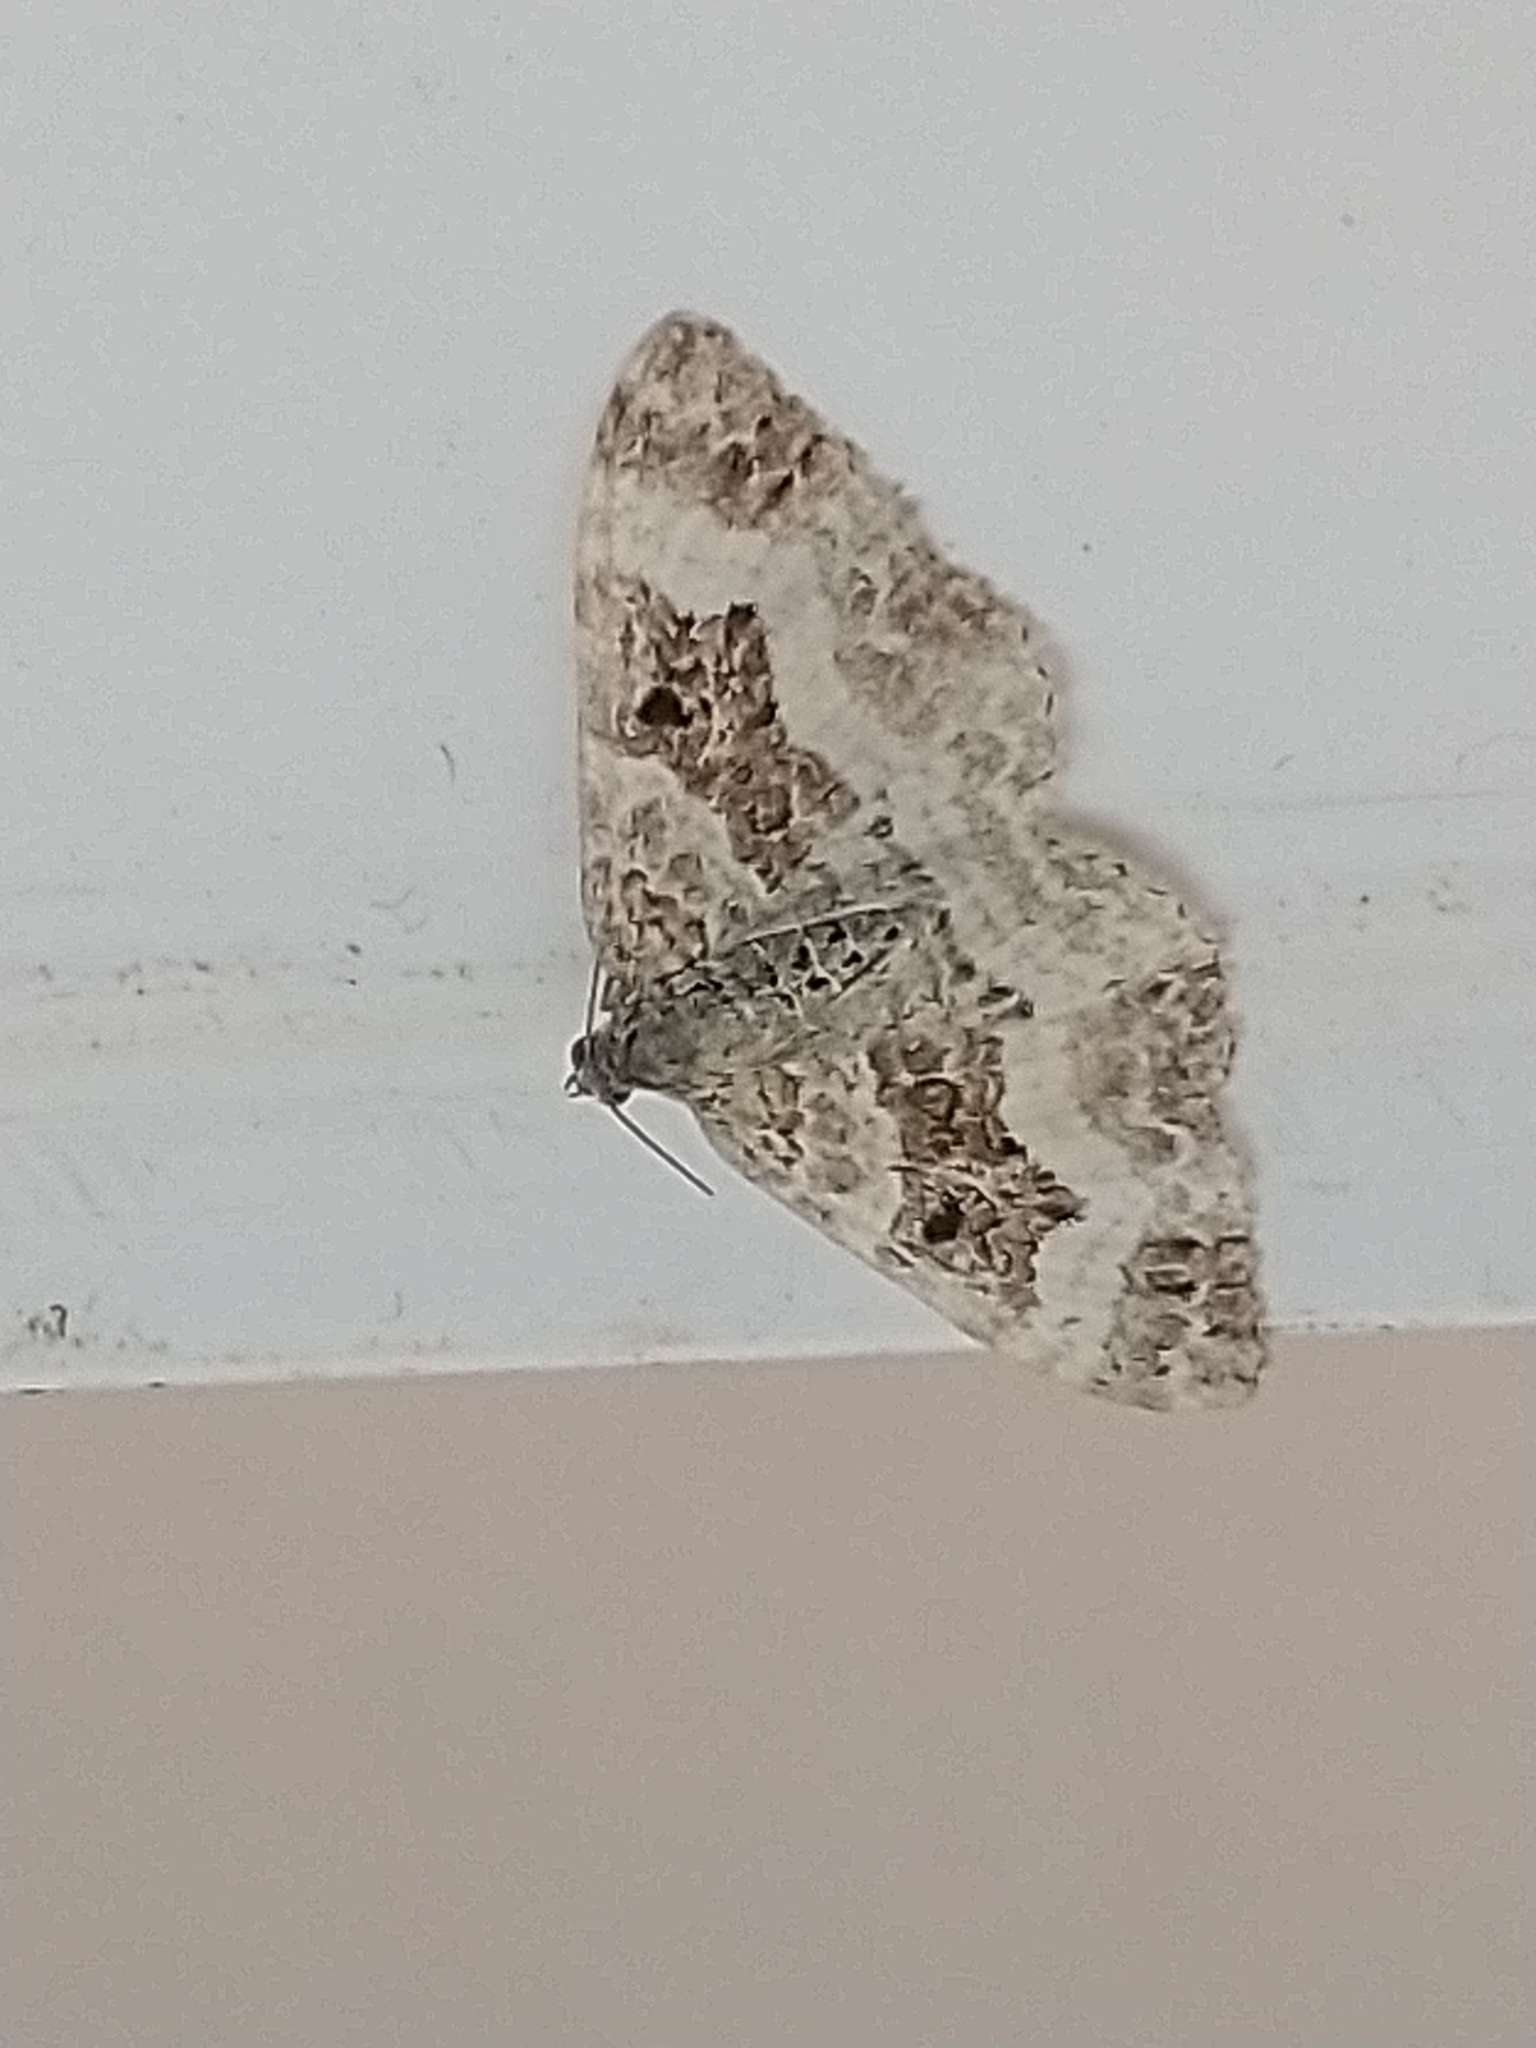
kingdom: Animalia
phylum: Arthropoda
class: Insecta
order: Lepidoptera
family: Geometridae
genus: Epirrhoe
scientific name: Epirrhoe alternata
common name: Common carpet
